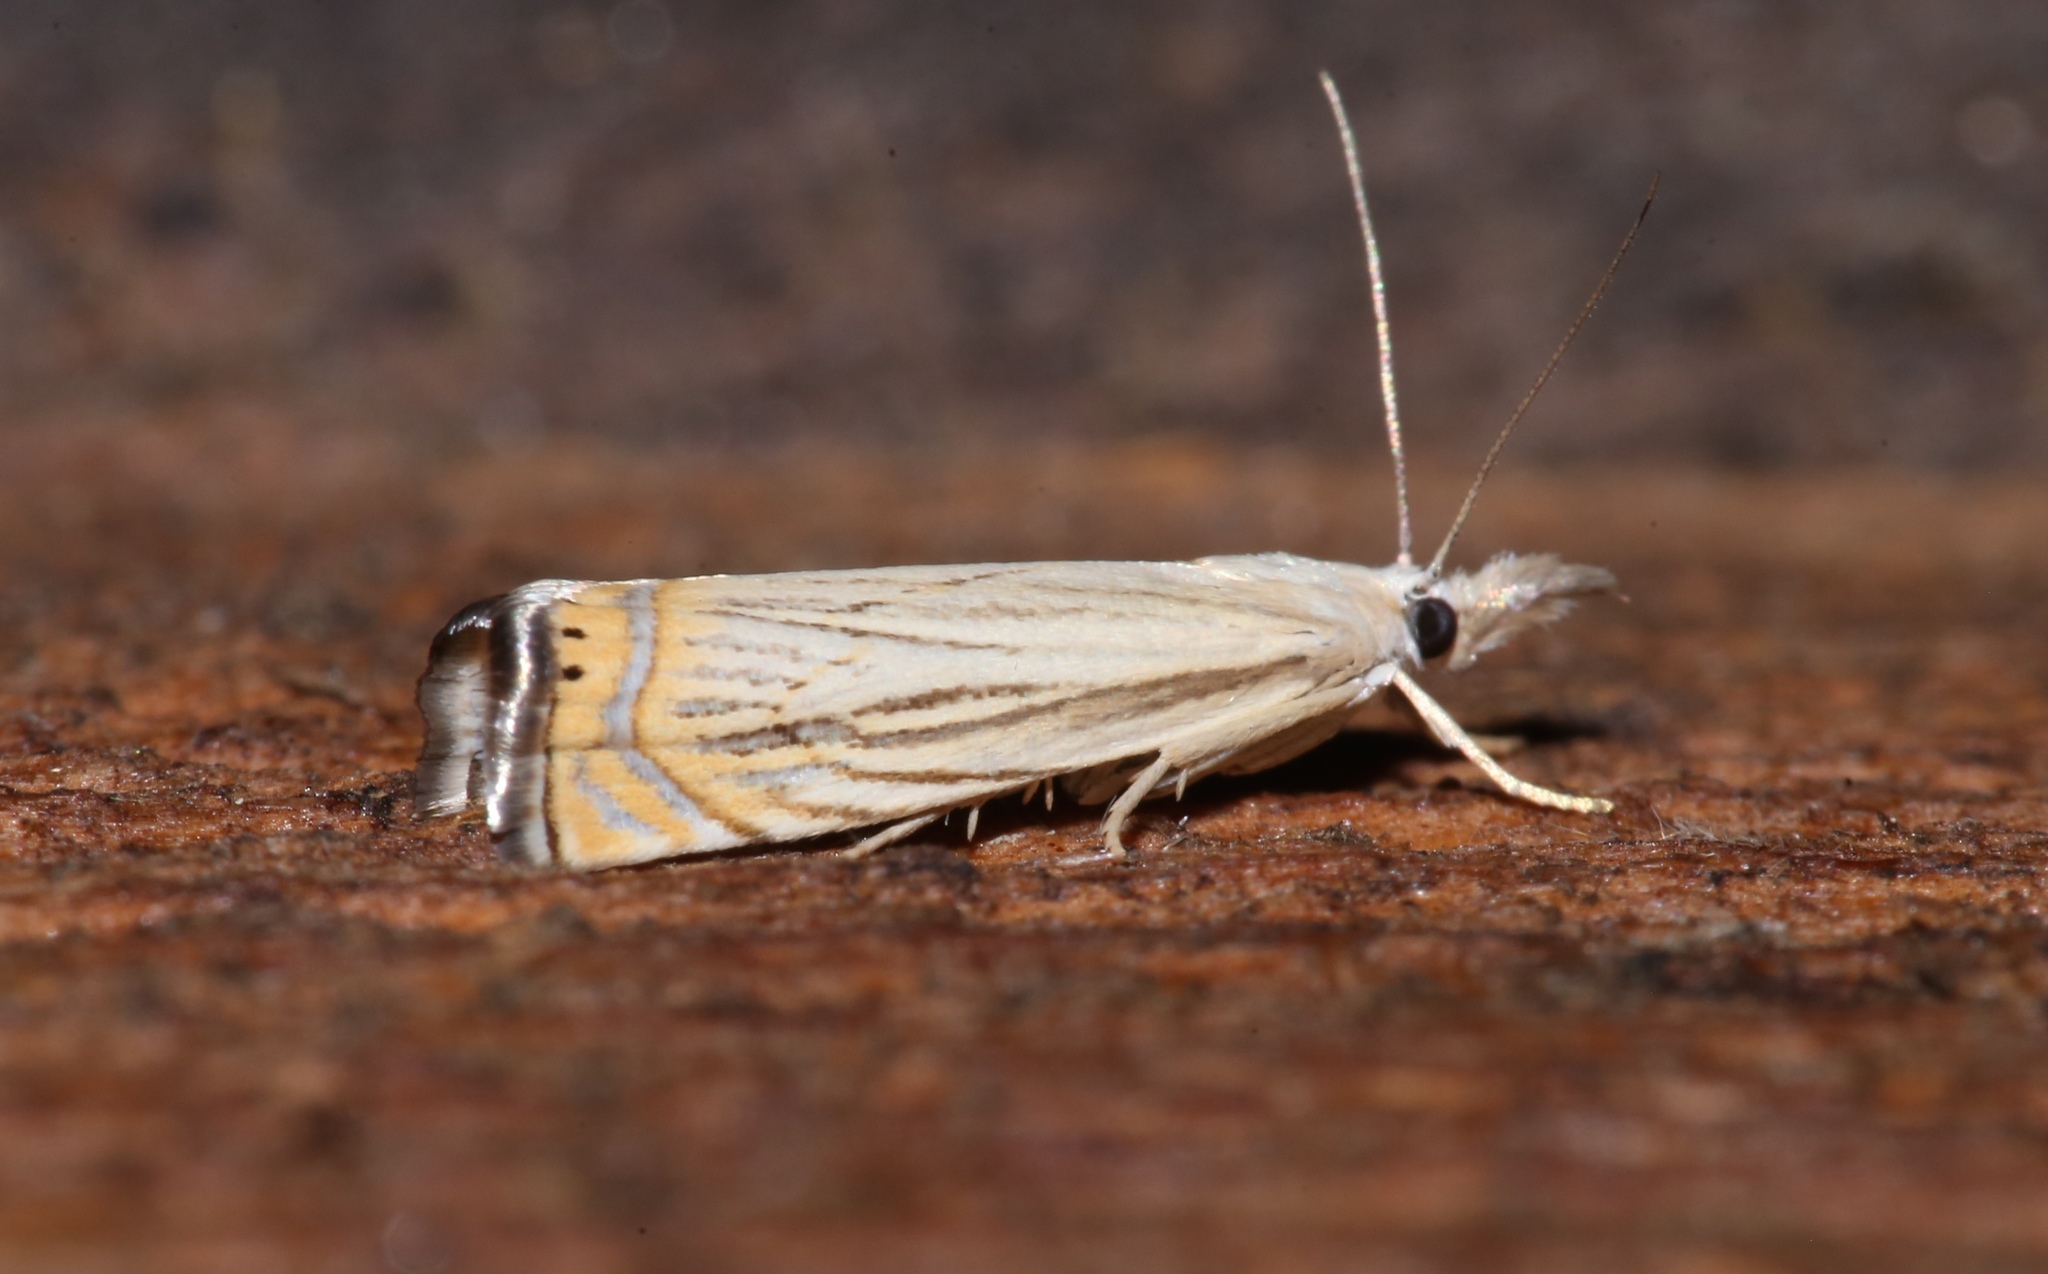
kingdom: Animalia
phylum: Arthropoda
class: Insecta
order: Lepidoptera
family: Crambidae
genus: Chrysoteuchia
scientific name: Chrysoteuchia topiarius
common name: Topiary grass-veneer
